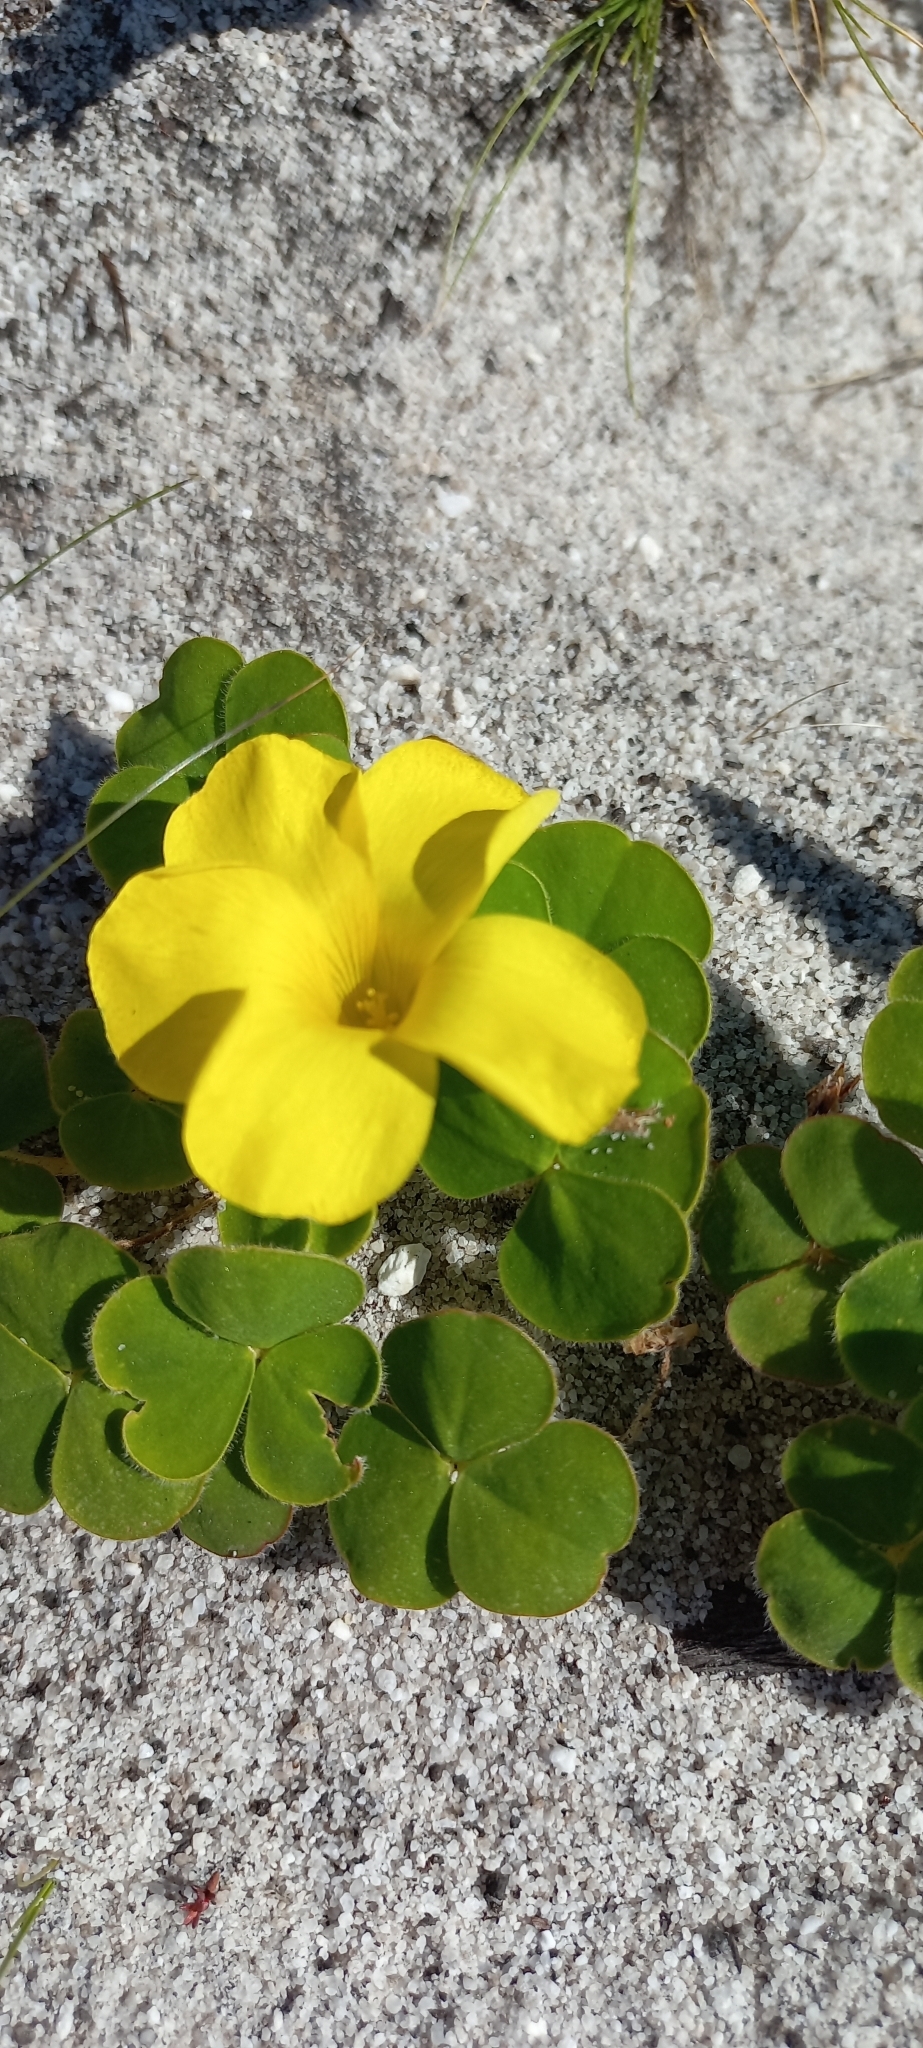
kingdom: Plantae
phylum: Tracheophyta
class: Magnoliopsida
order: Oxalidales
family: Oxalidaceae
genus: Oxalis
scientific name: Oxalis luteola
